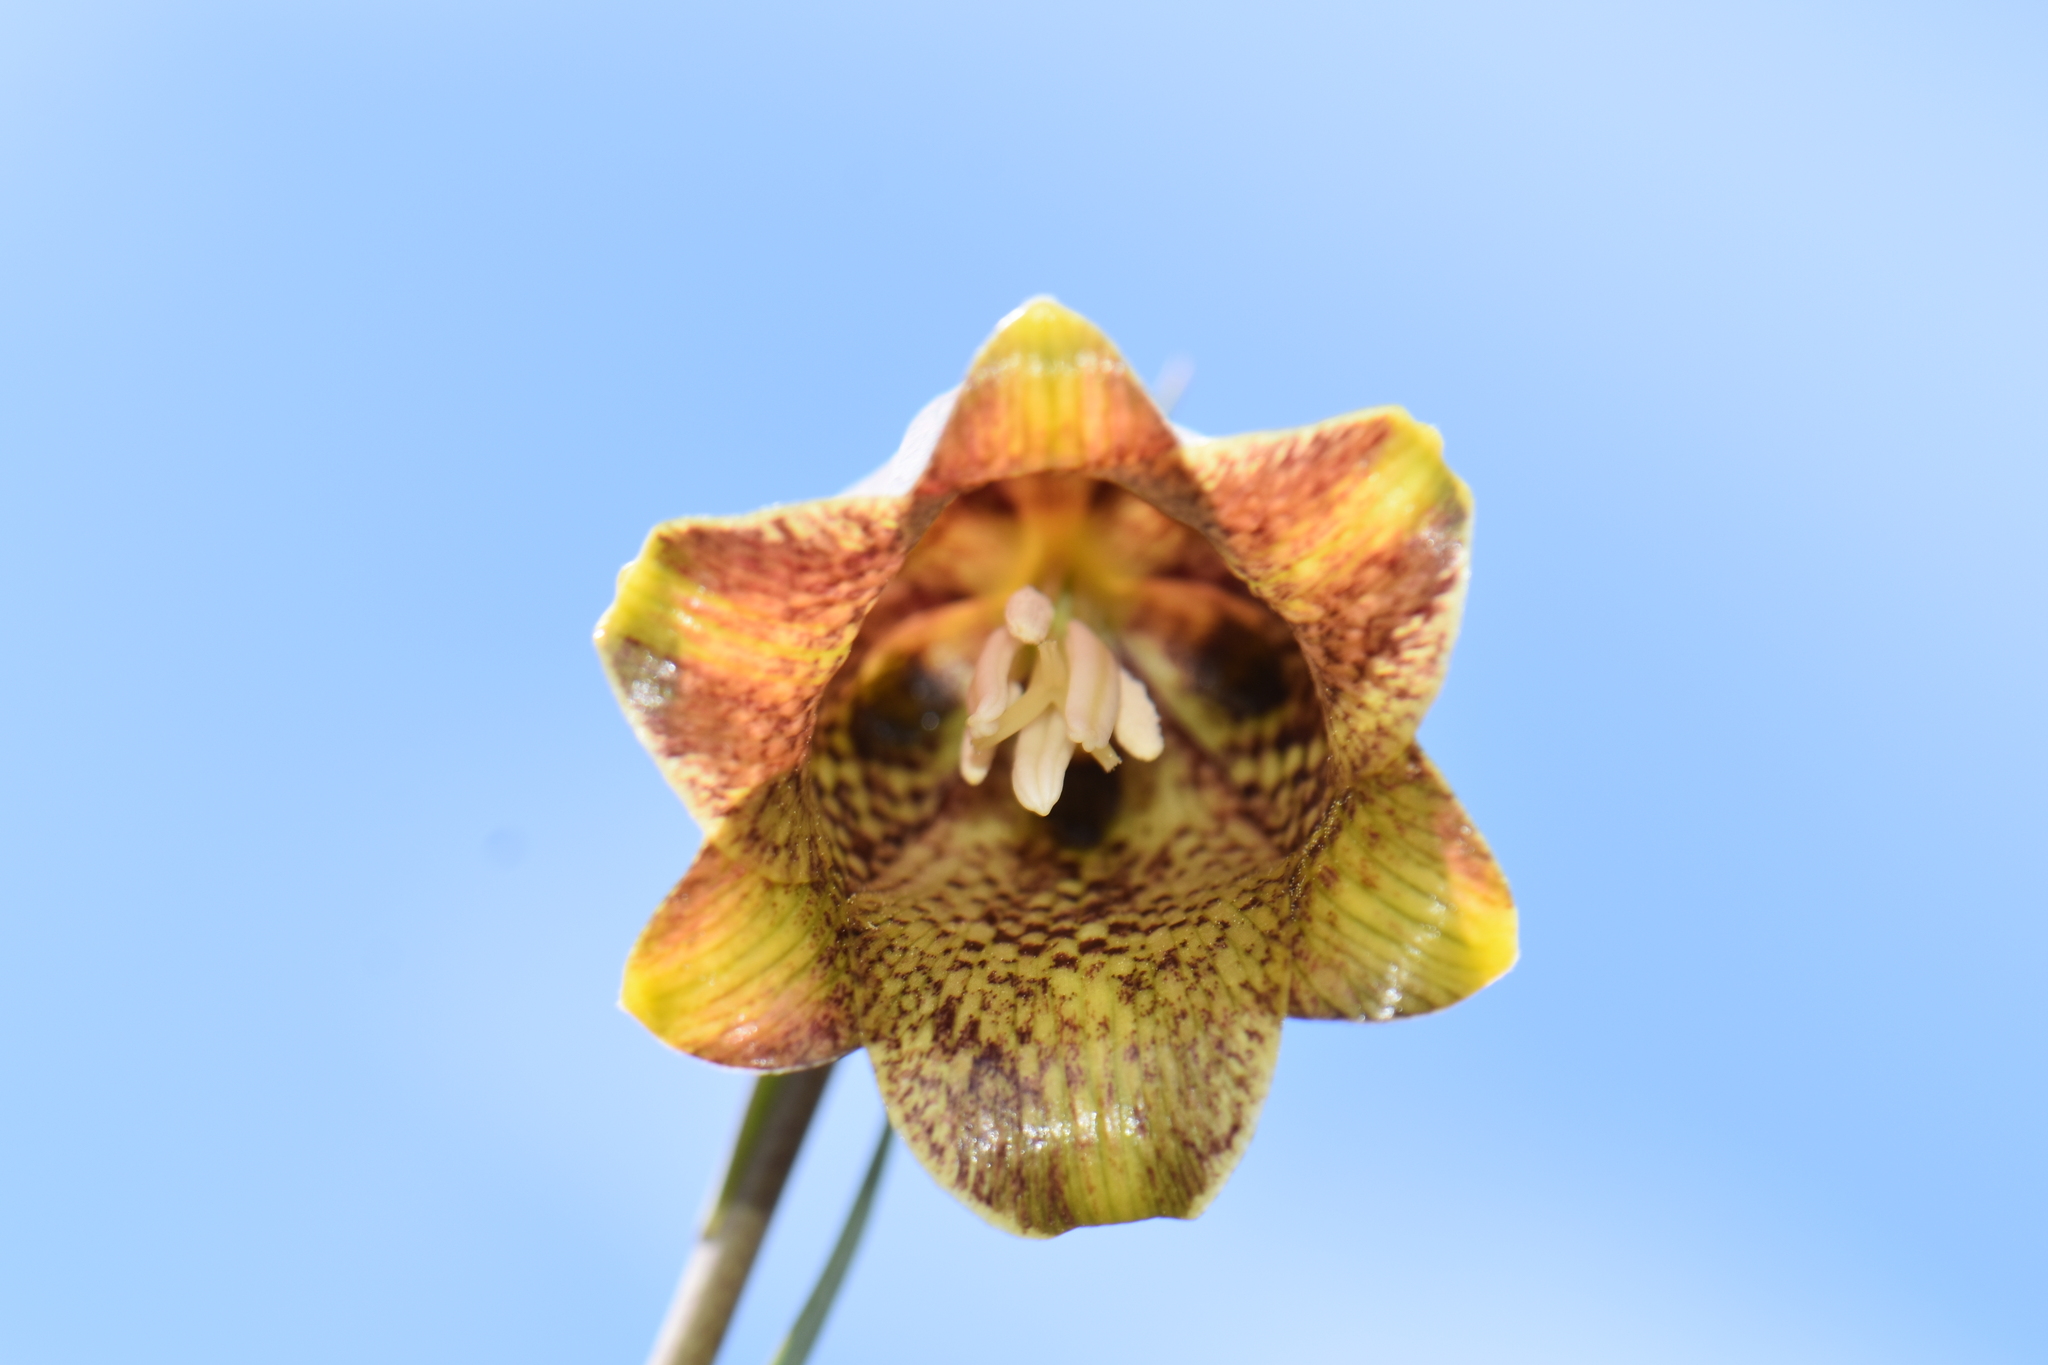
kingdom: Plantae
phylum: Tracheophyta
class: Liliopsida
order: Liliales
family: Liliaceae
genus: Fritillaria
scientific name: Fritillaria pyrenaica
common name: Pyrenean snake's-head
